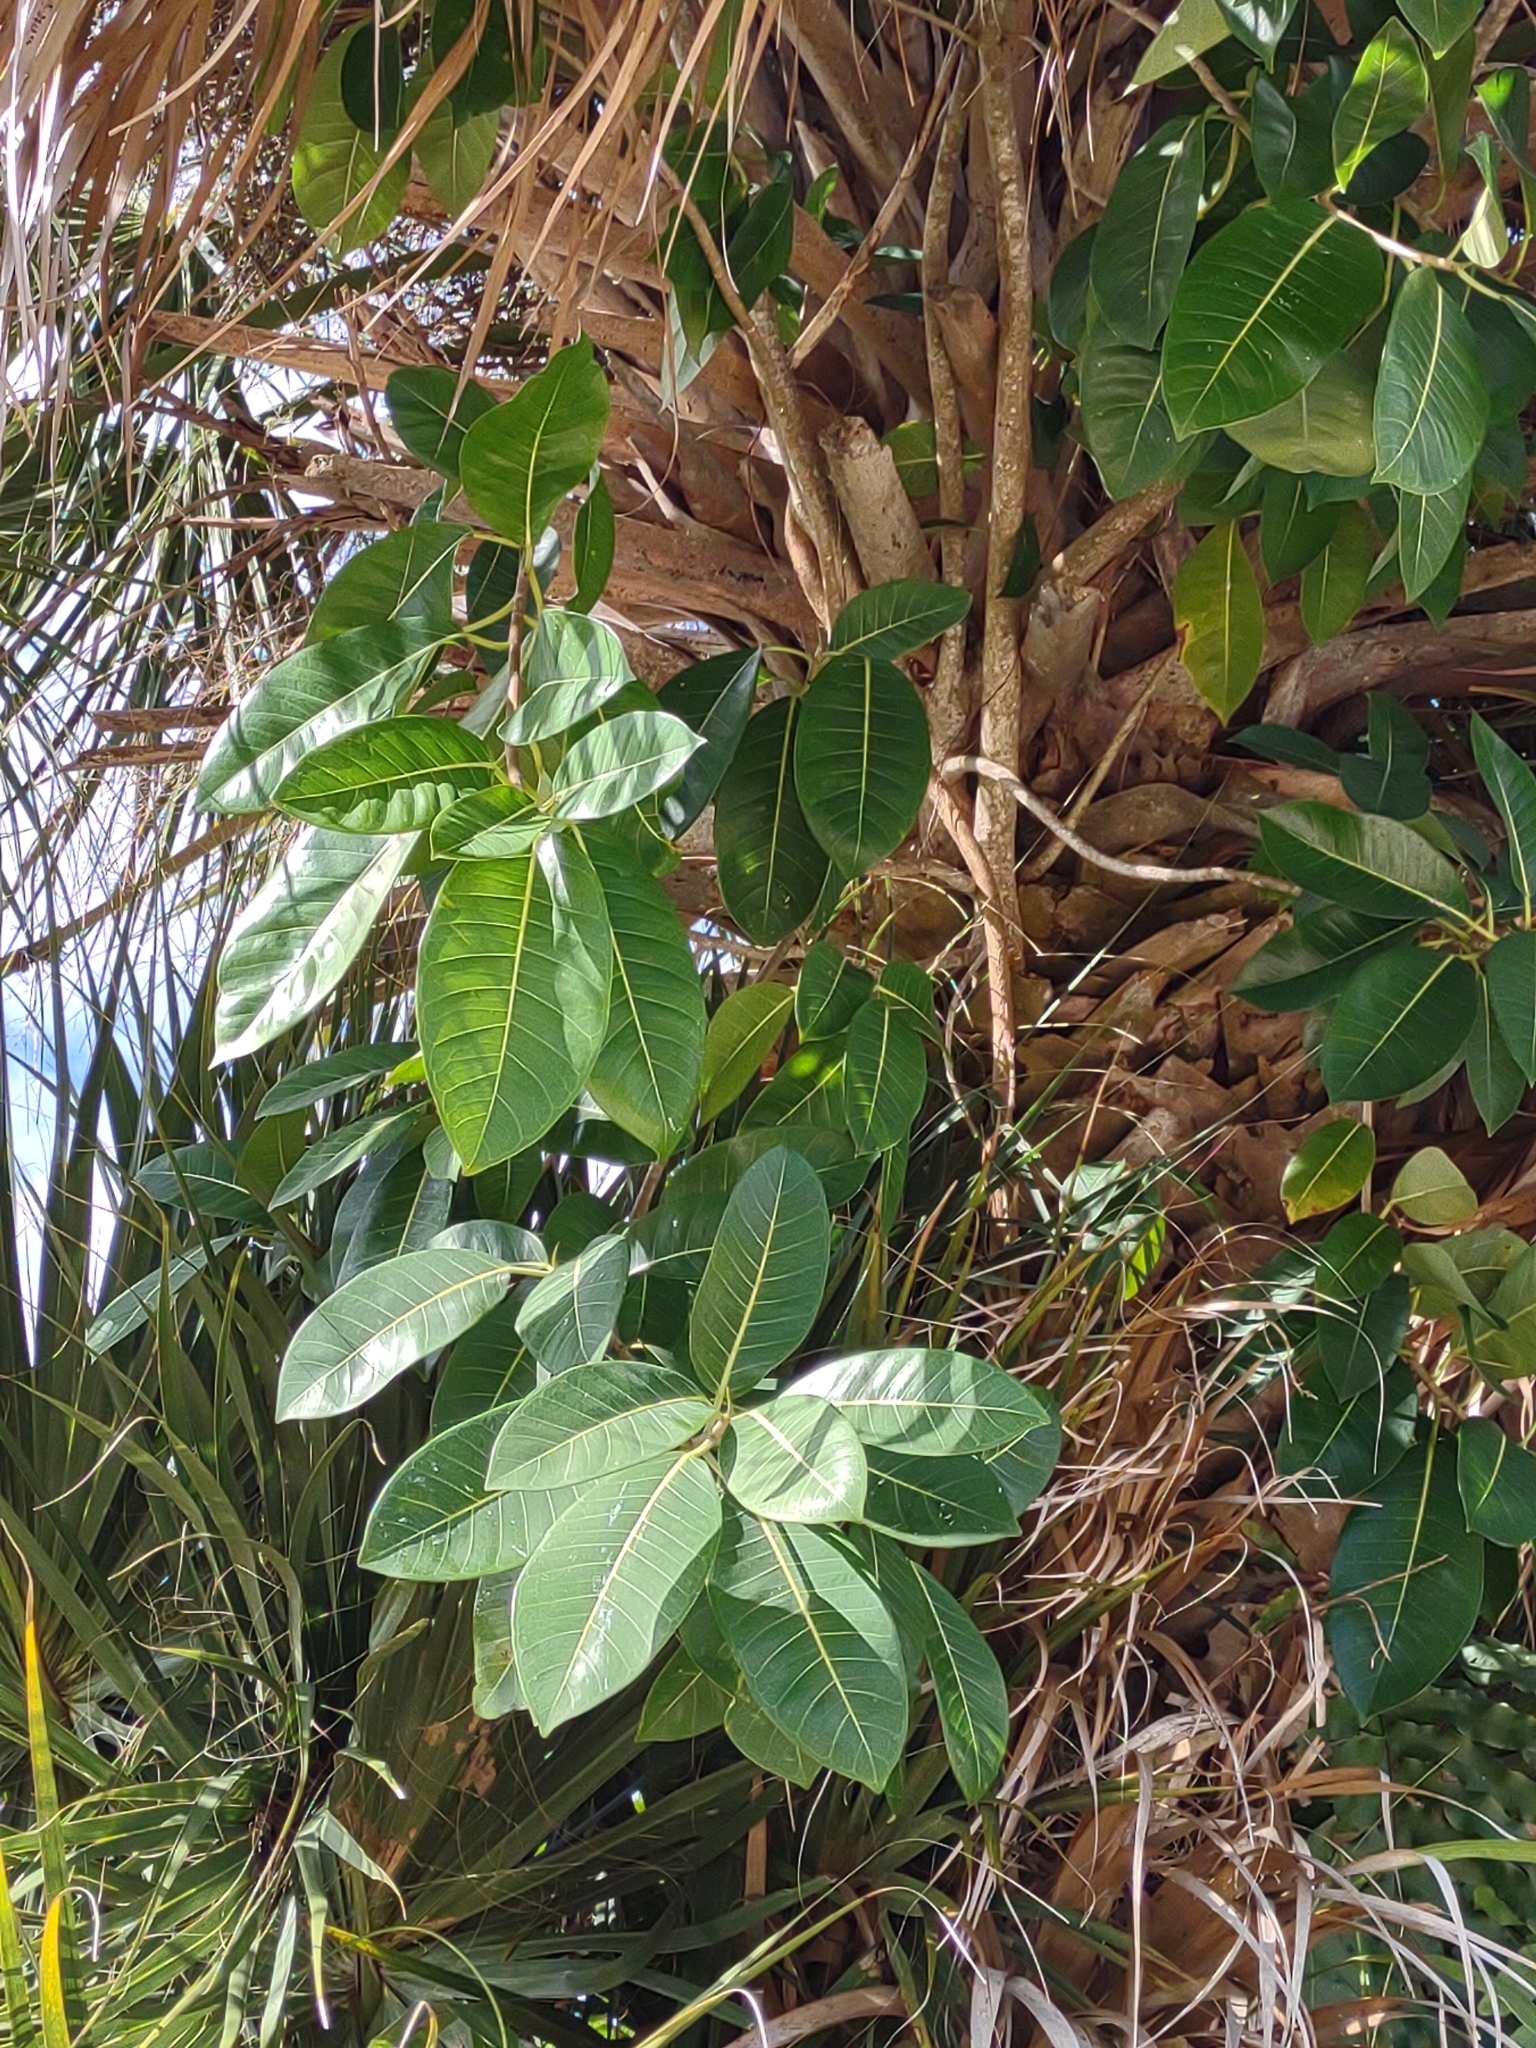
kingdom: Plantae
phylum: Tracheophyta
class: Magnoliopsida
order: Rosales
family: Moraceae
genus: Ficus
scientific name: Ficus aurea
